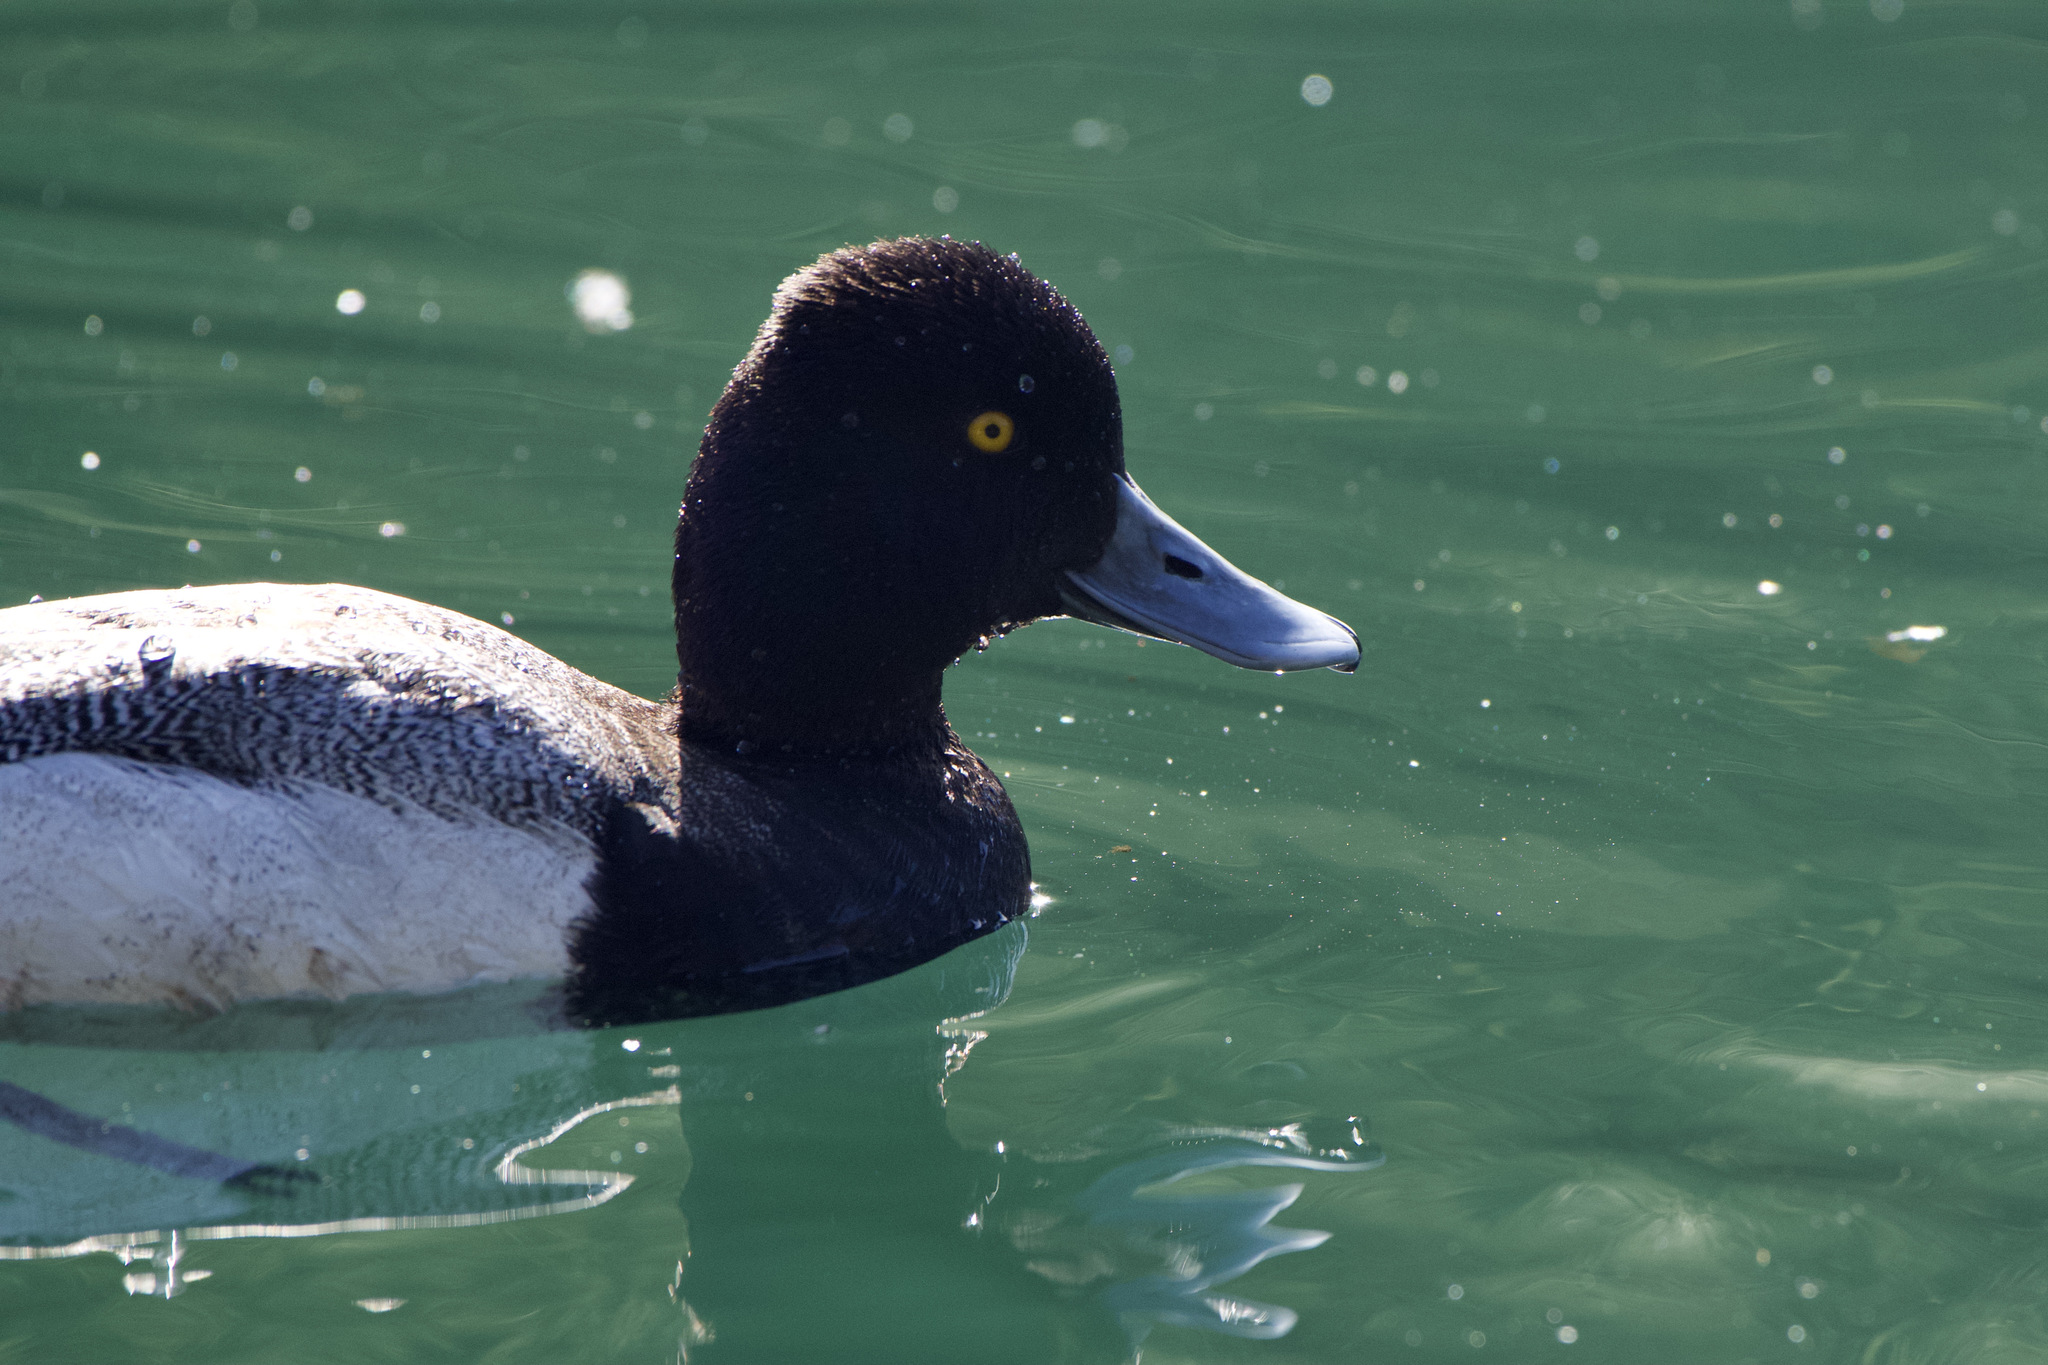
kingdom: Animalia
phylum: Chordata
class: Aves
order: Anseriformes
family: Anatidae
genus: Aythya
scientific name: Aythya affinis
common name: Lesser scaup
